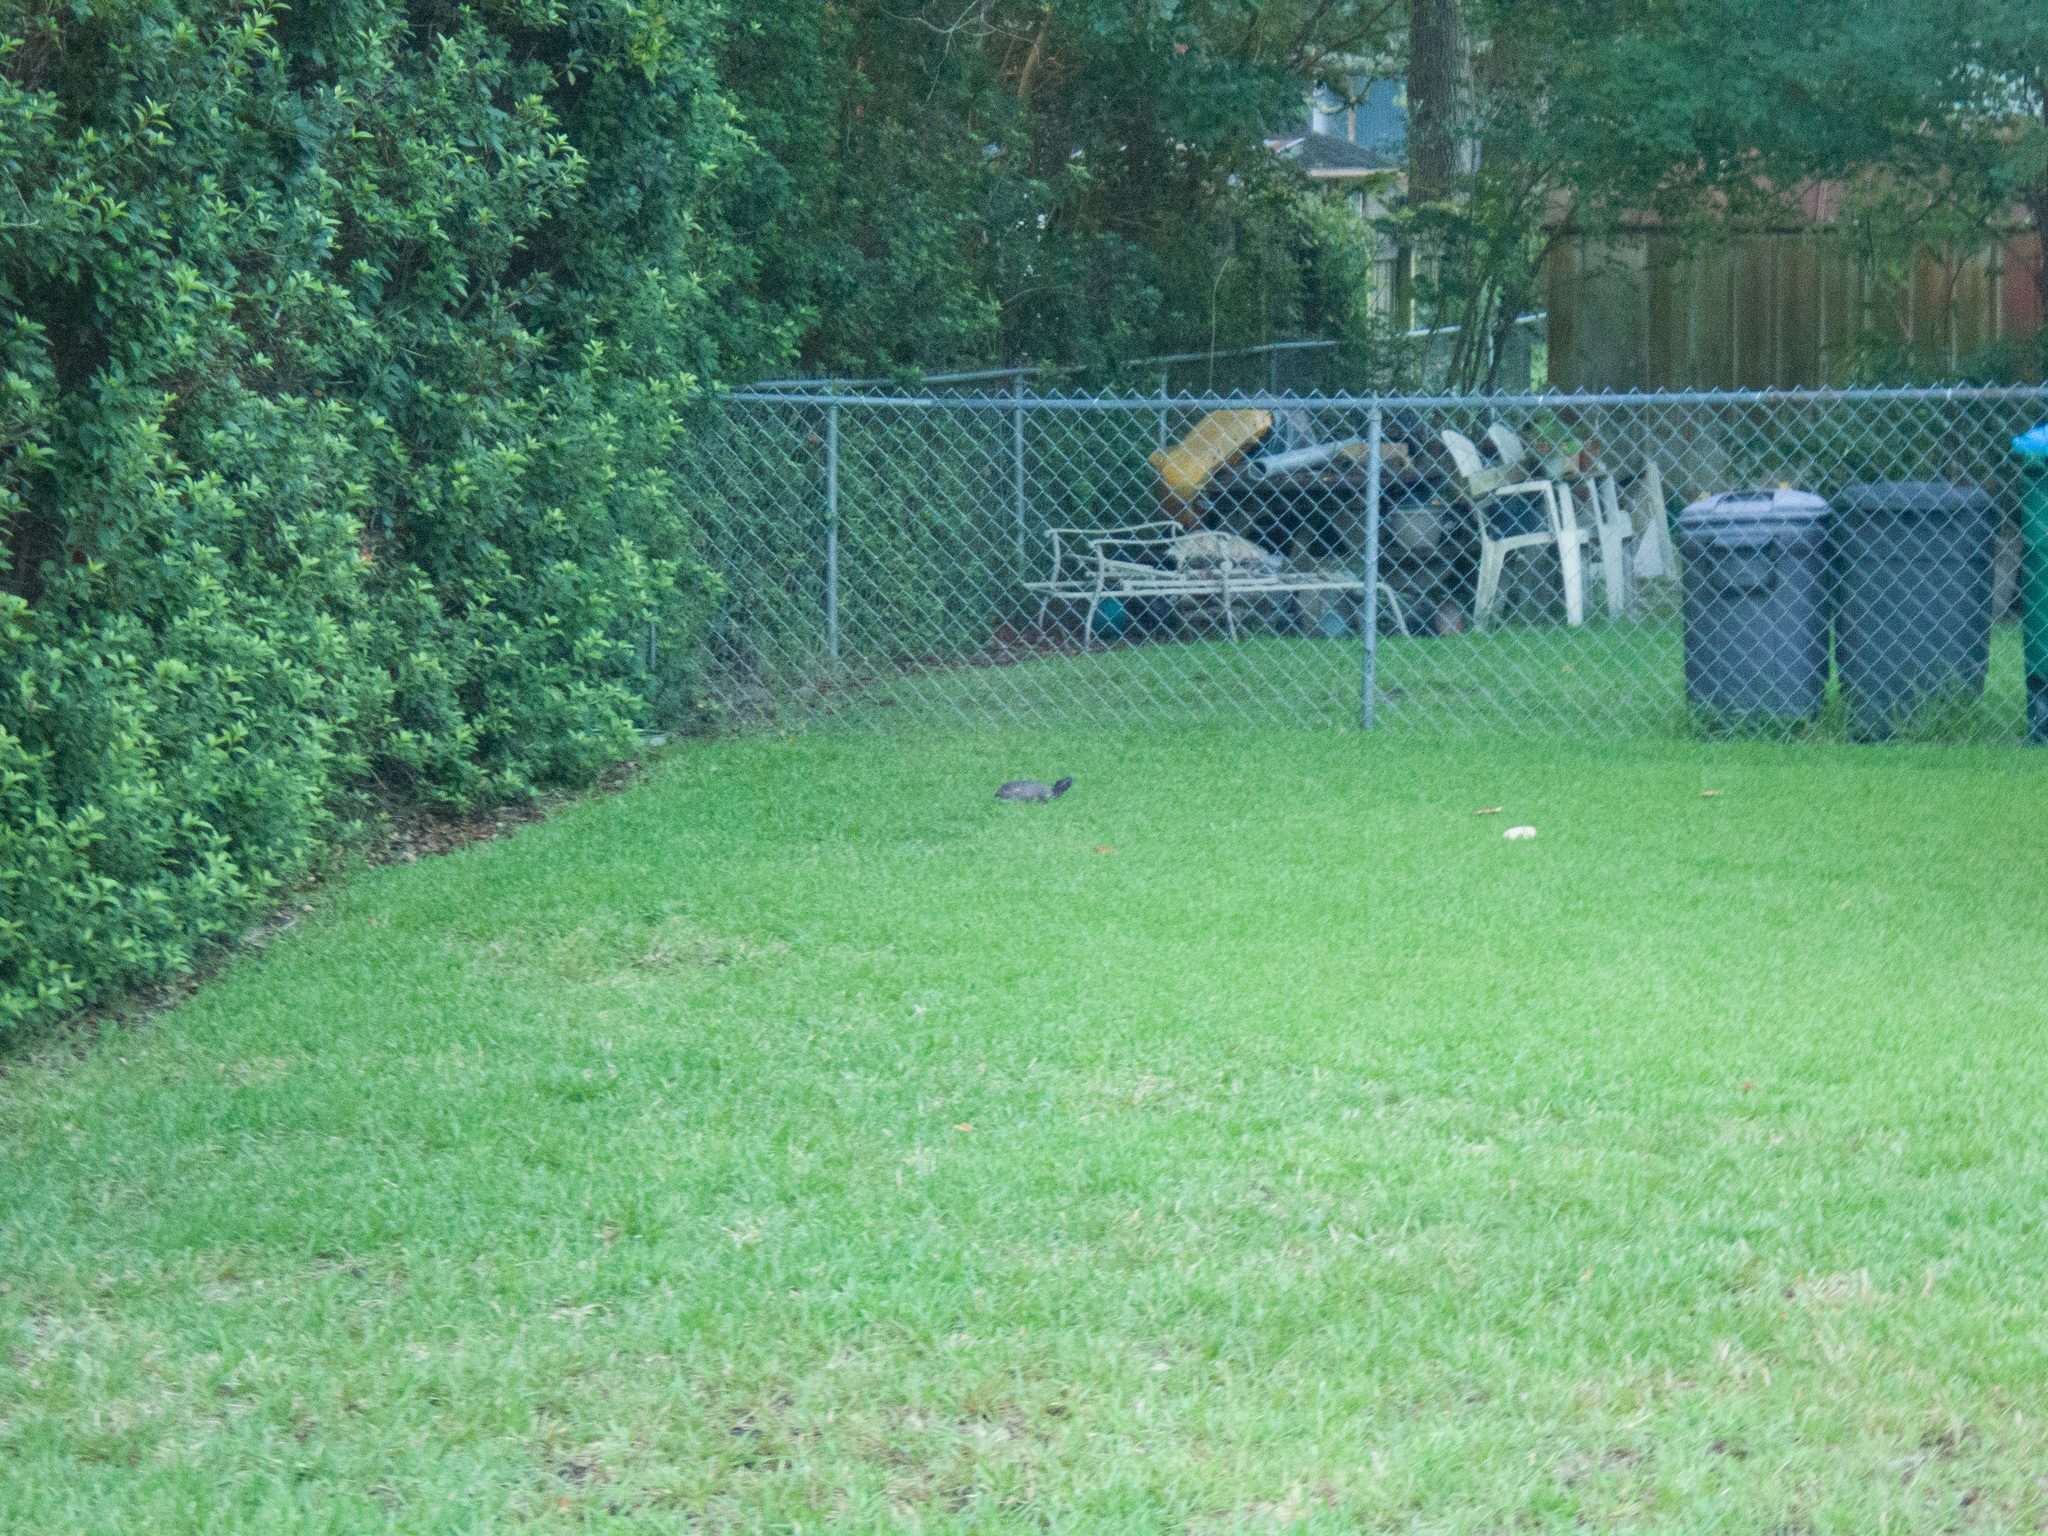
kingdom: Animalia
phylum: Chordata
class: Testudines
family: Emydidae
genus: Terrapene
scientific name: Terrapene carolina
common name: Common box turtle
